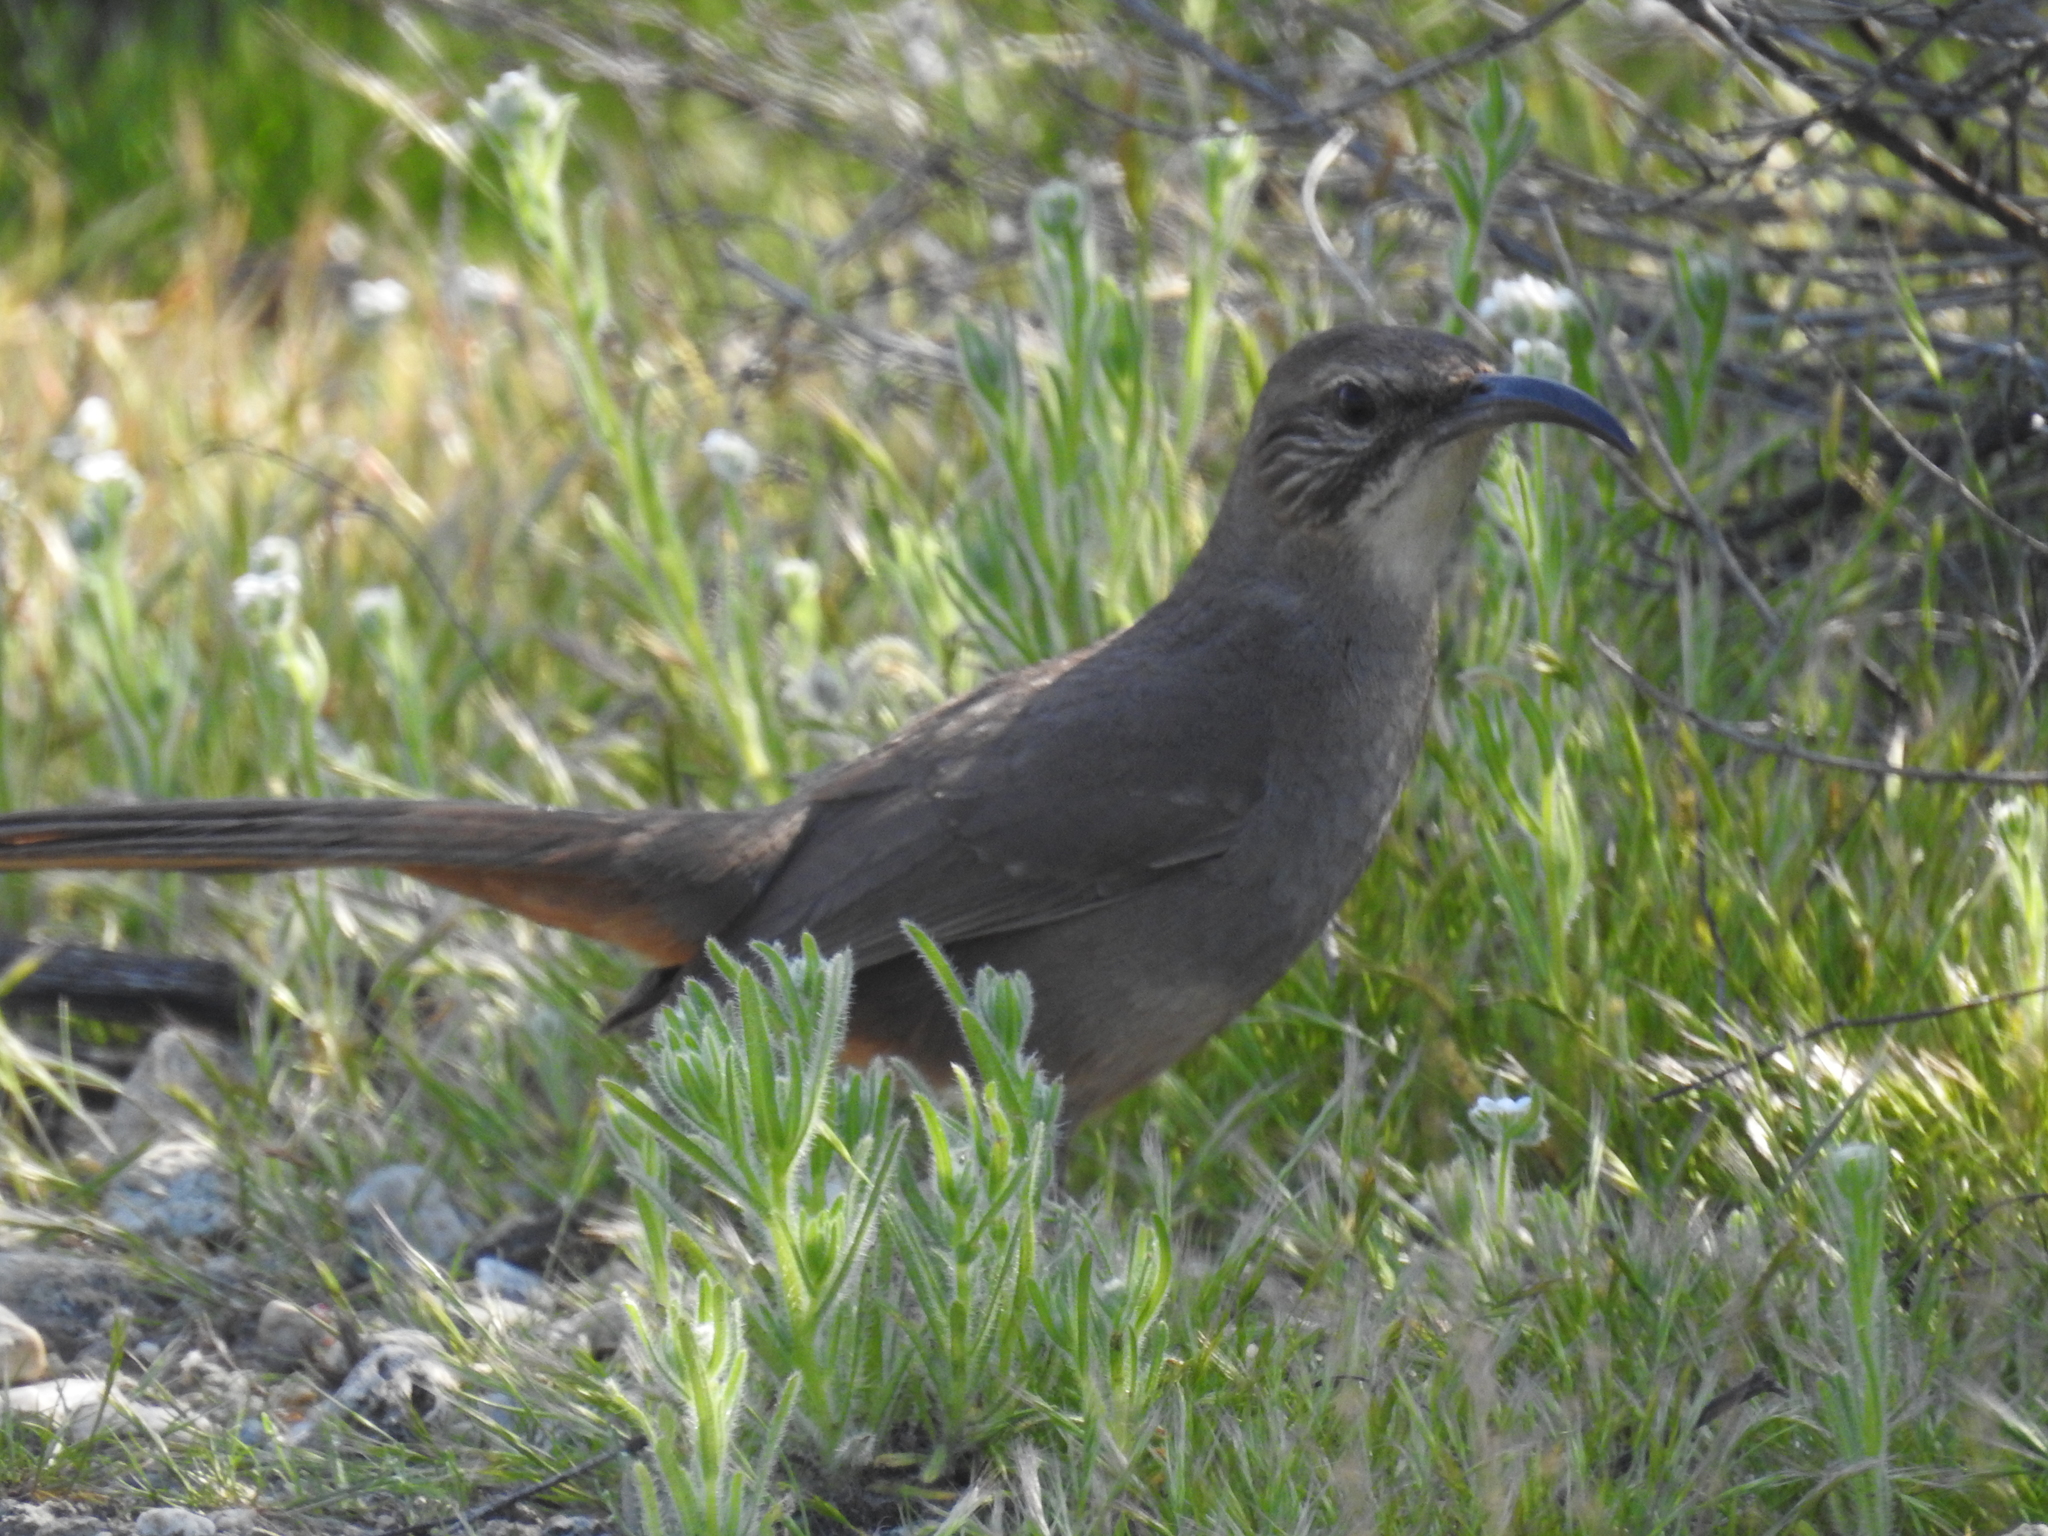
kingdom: Animalia
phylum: Chordata
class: Aves
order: Passeriformes
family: Mimidae
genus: Toxostoma
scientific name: Toxostoma redivivum
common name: California thrasher
